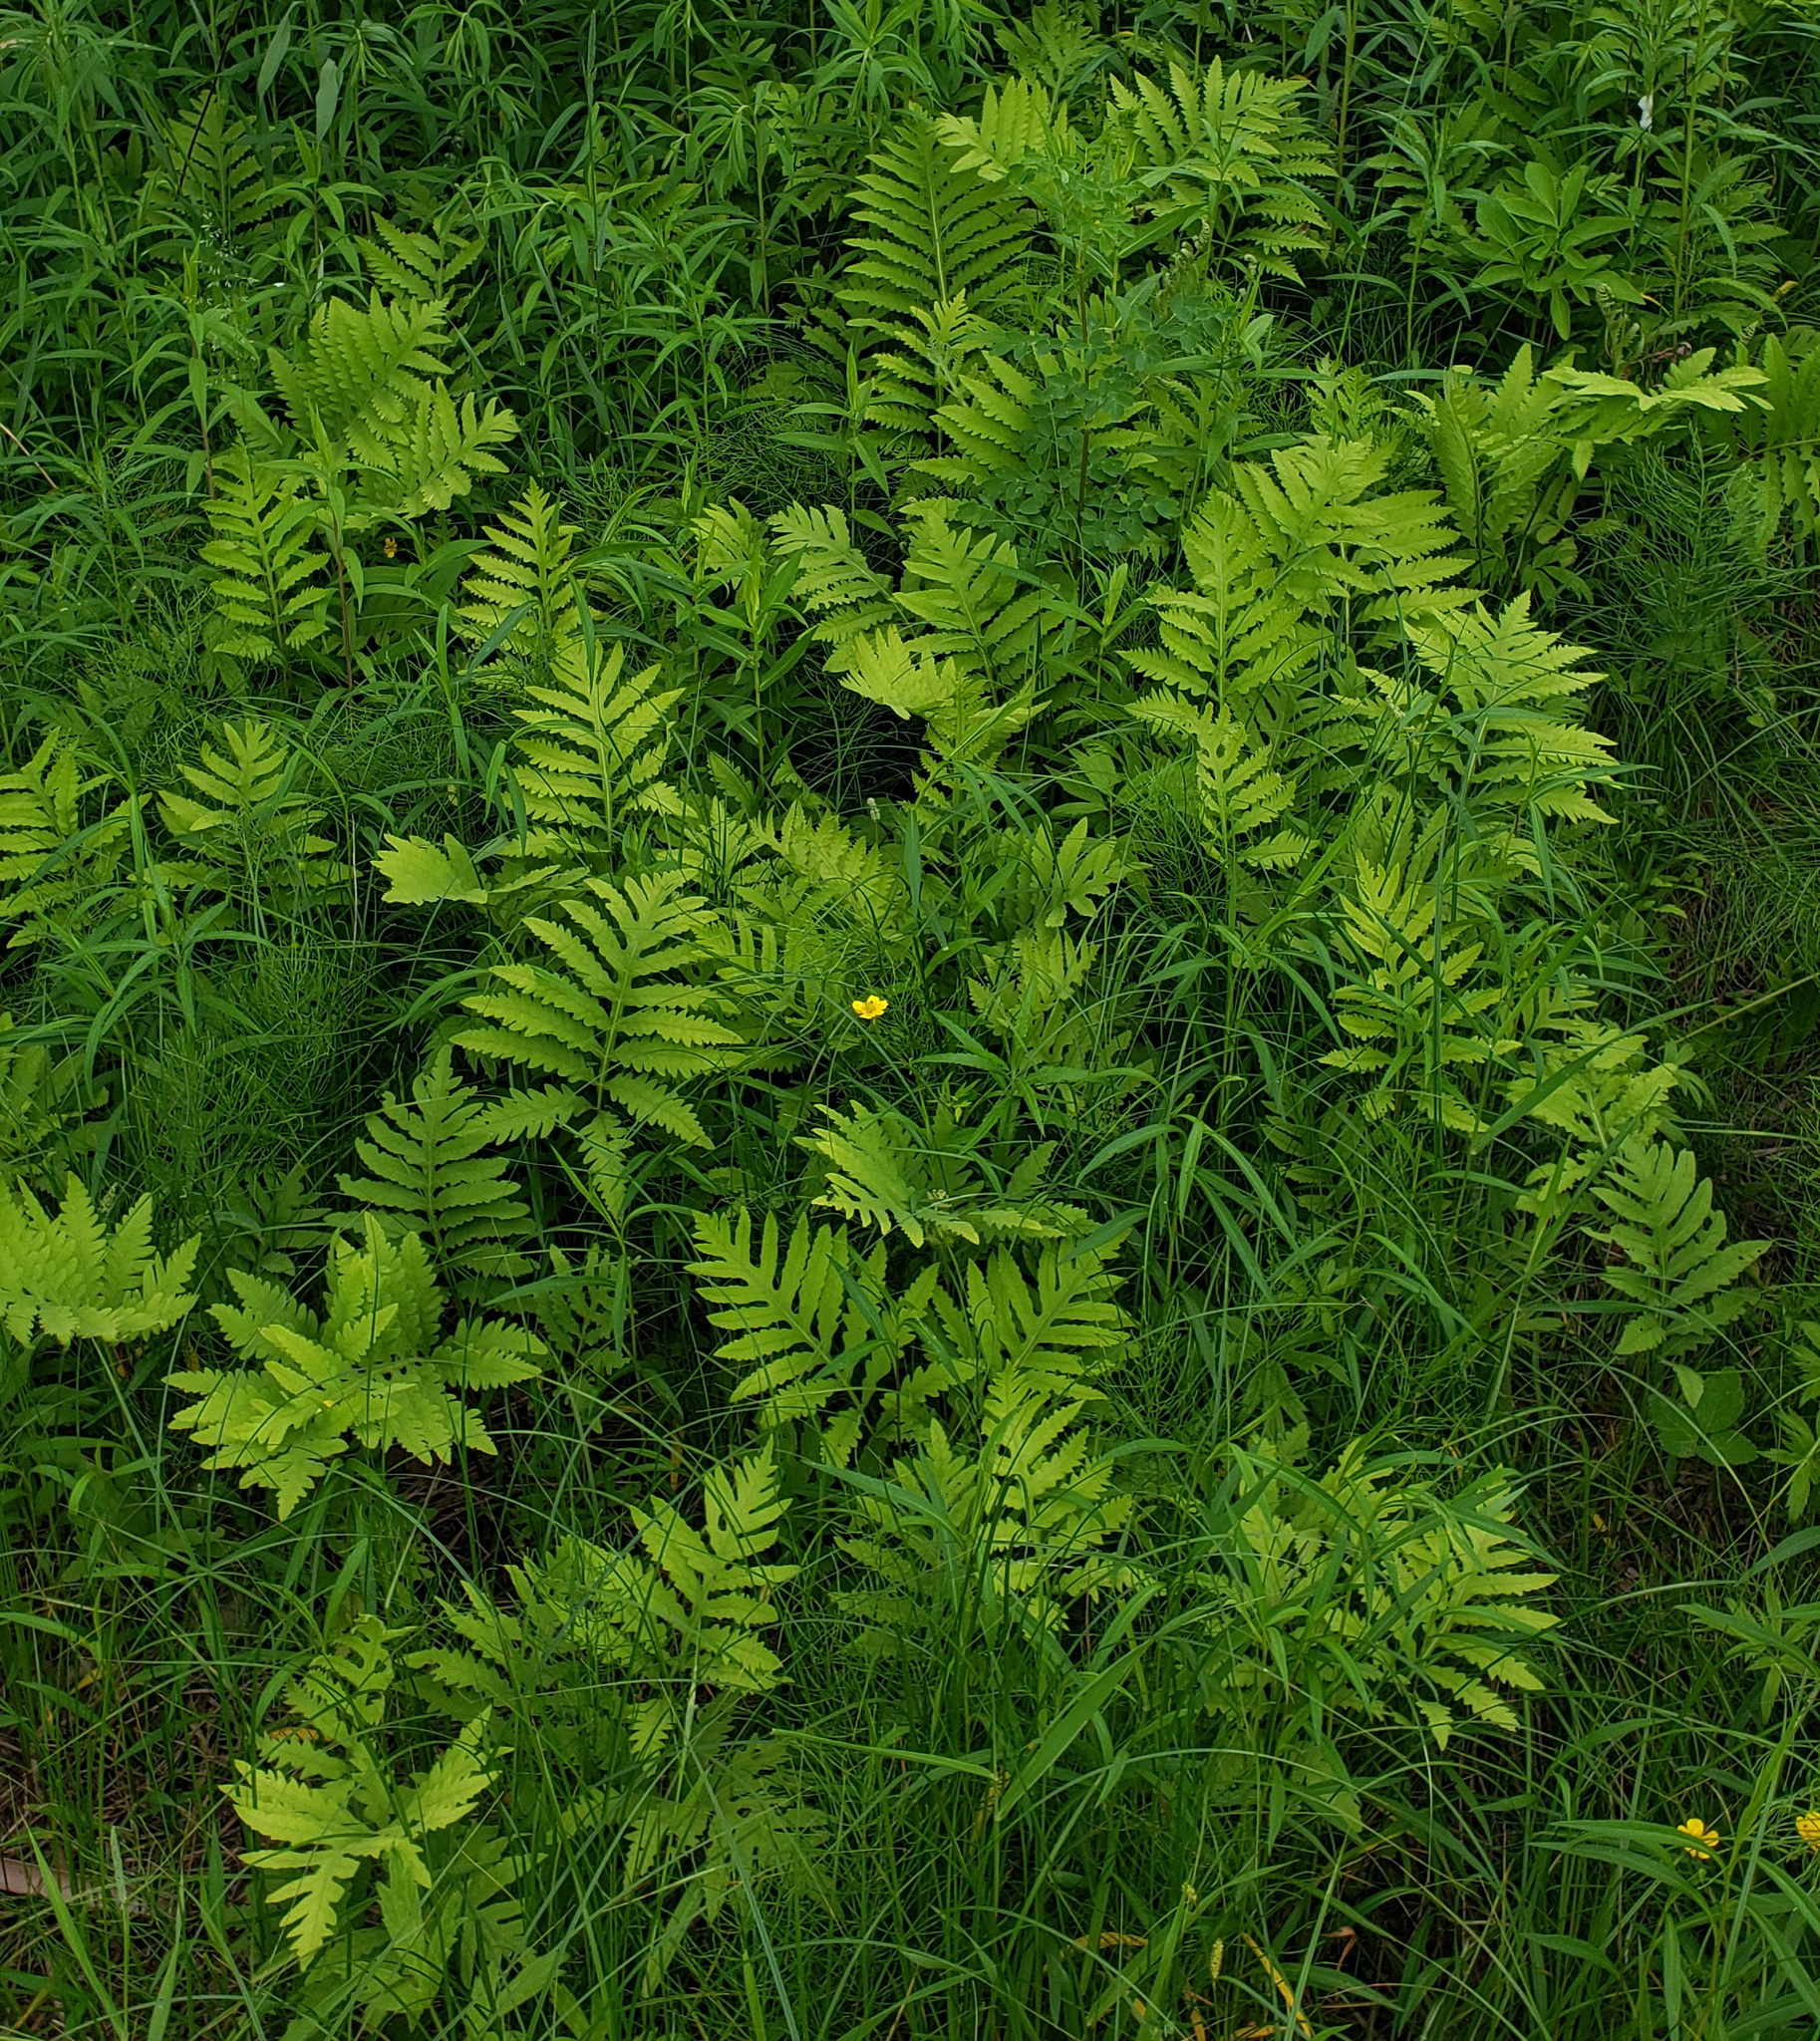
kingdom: Plantae
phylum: Tracheophyta
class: Polypodiopsida
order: Polypodiales
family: Onocleaceae
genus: Onoclea
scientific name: Onoclea sensibilis
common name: Sensitive fern
